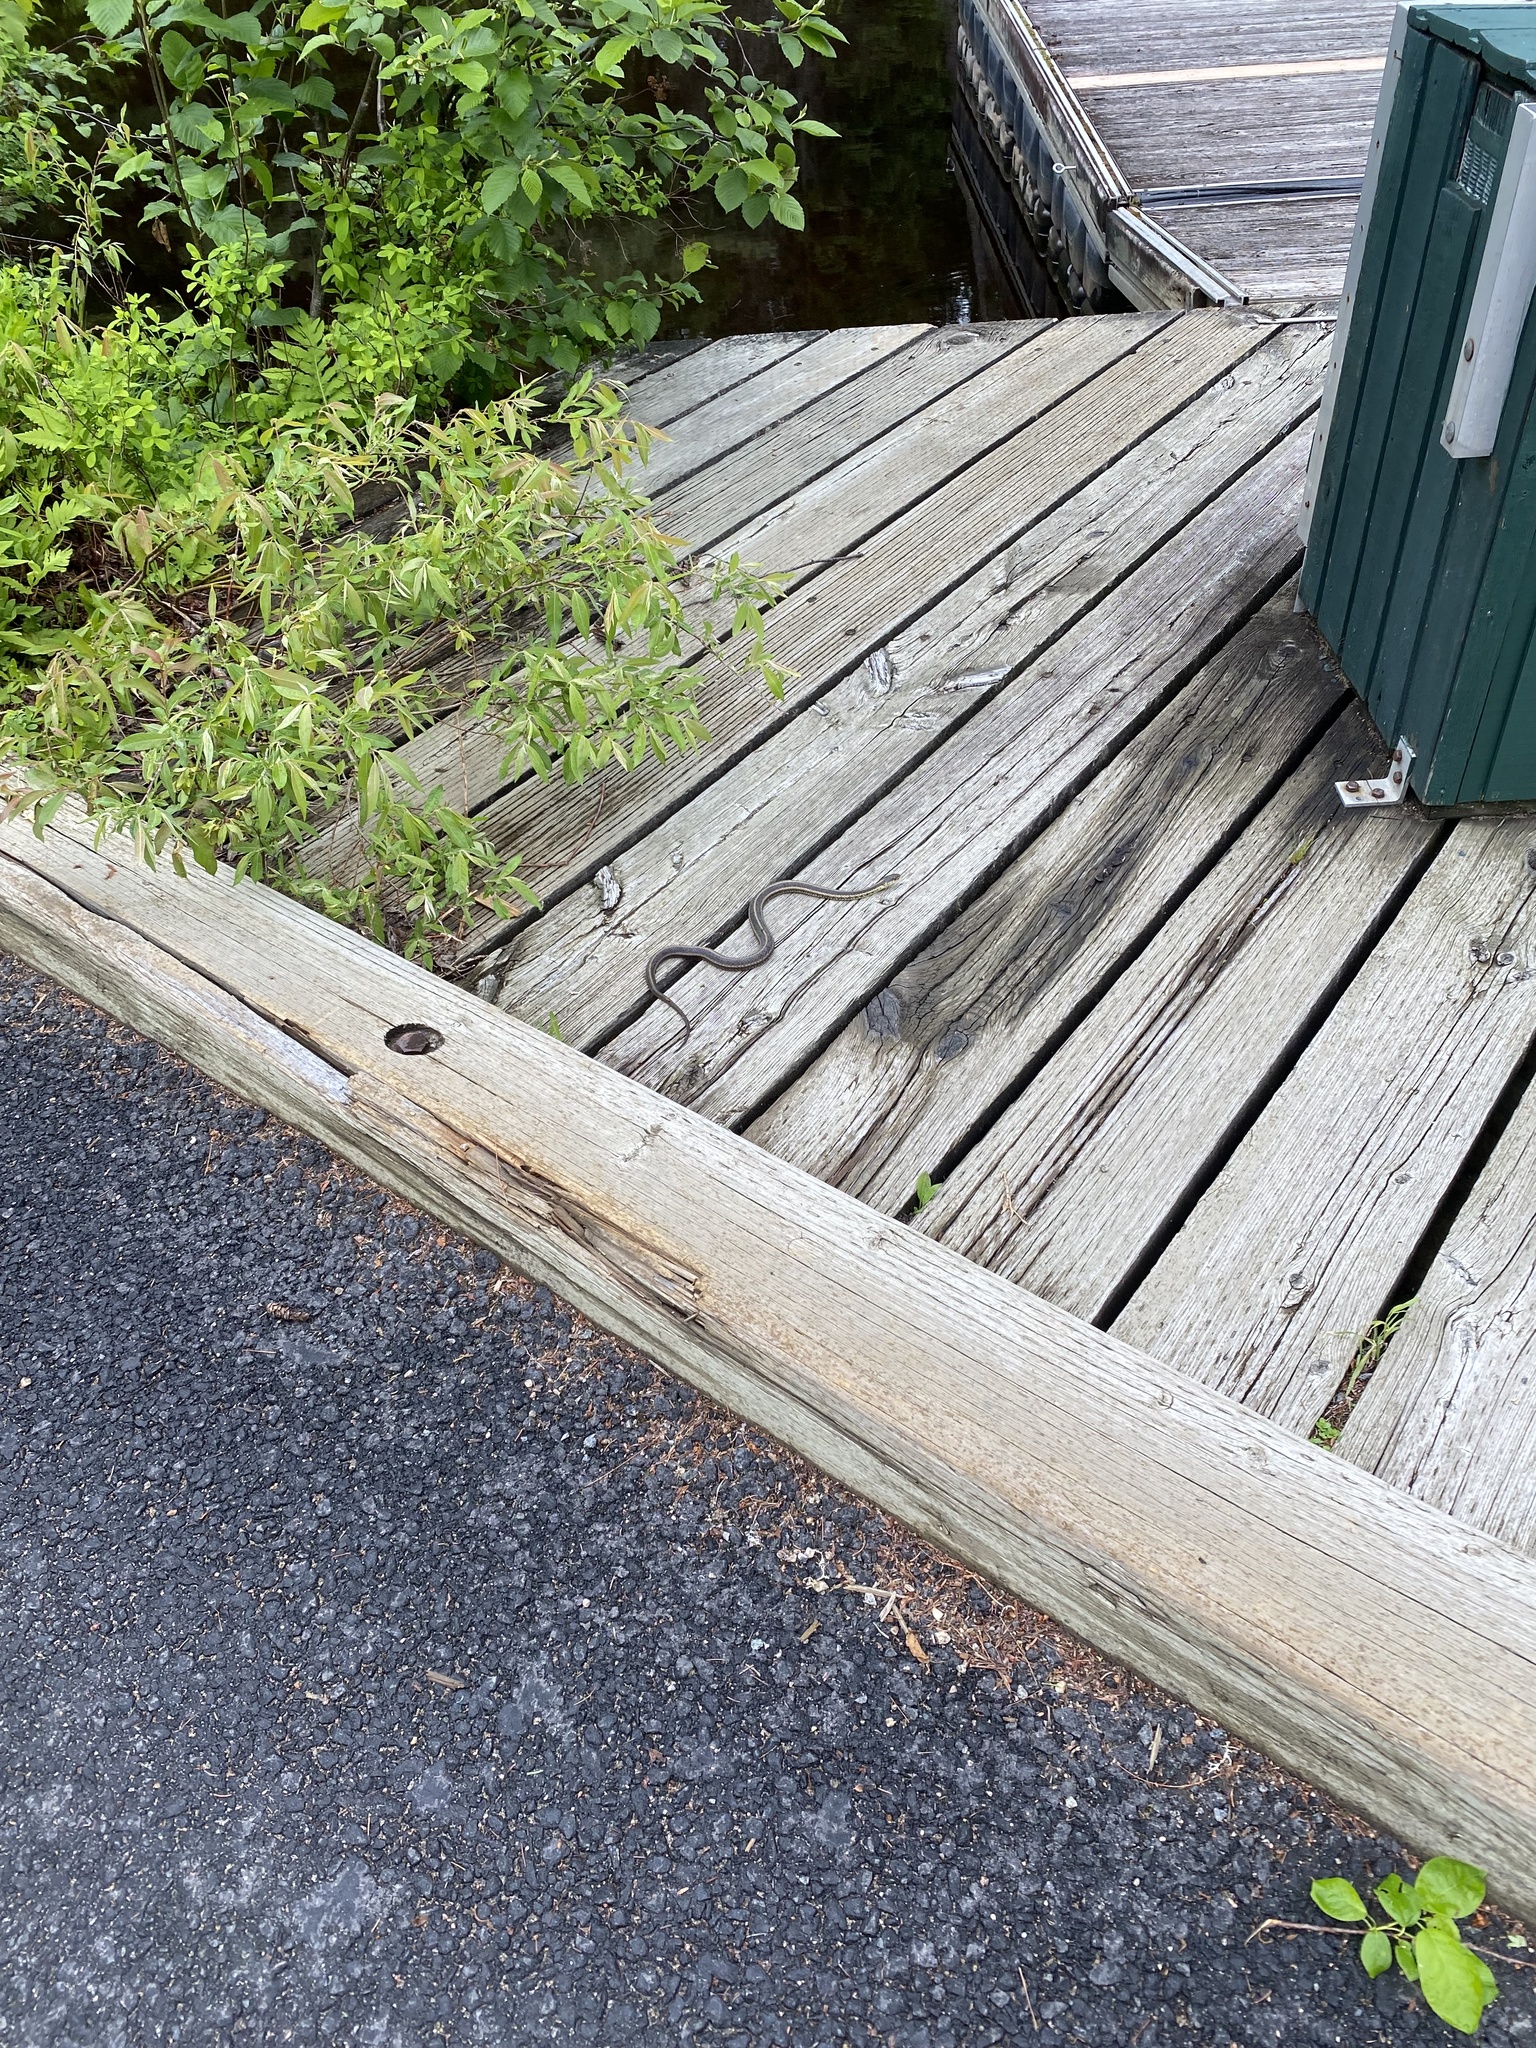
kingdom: Animalia
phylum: Chordata
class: Squamata
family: Colubridae
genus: Thamnophis
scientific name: Thamnophis sirtalis
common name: Common garter snake
